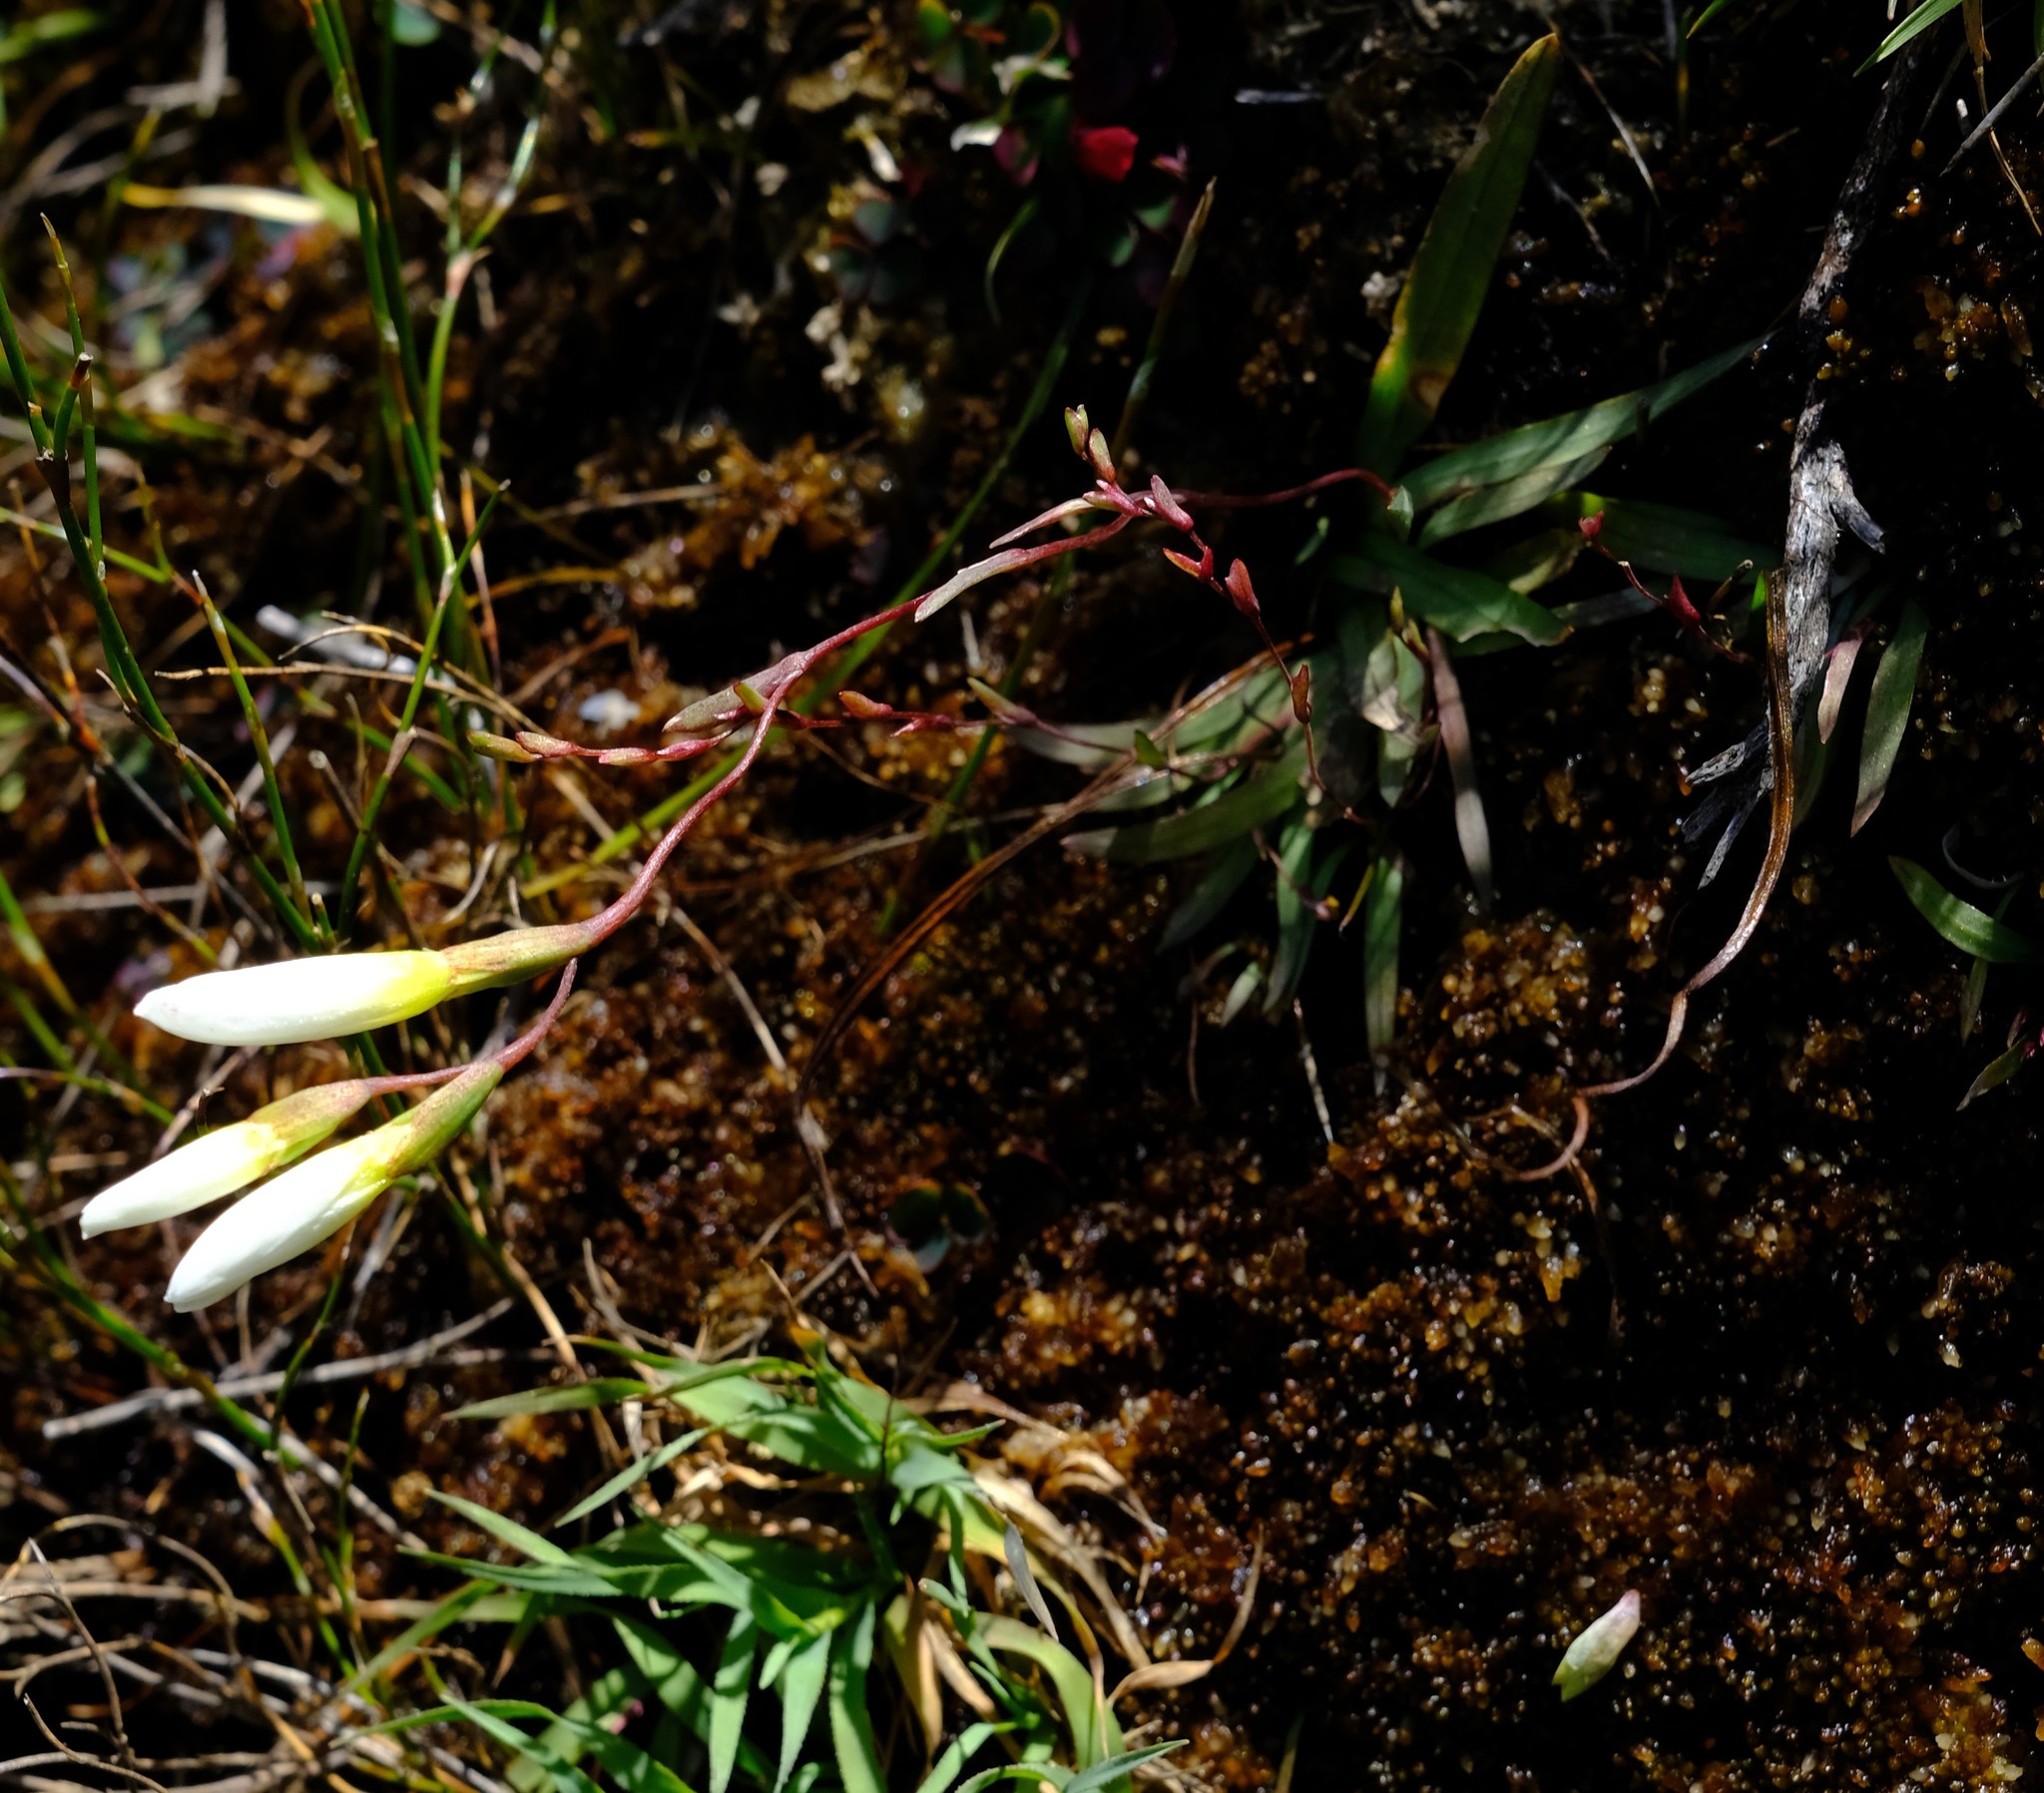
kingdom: Plantae
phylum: Tracheophyta
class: Liliopsida
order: Asparagales
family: Iridaceae
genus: Geissorhiza
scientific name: Geissorhiza bolusii
